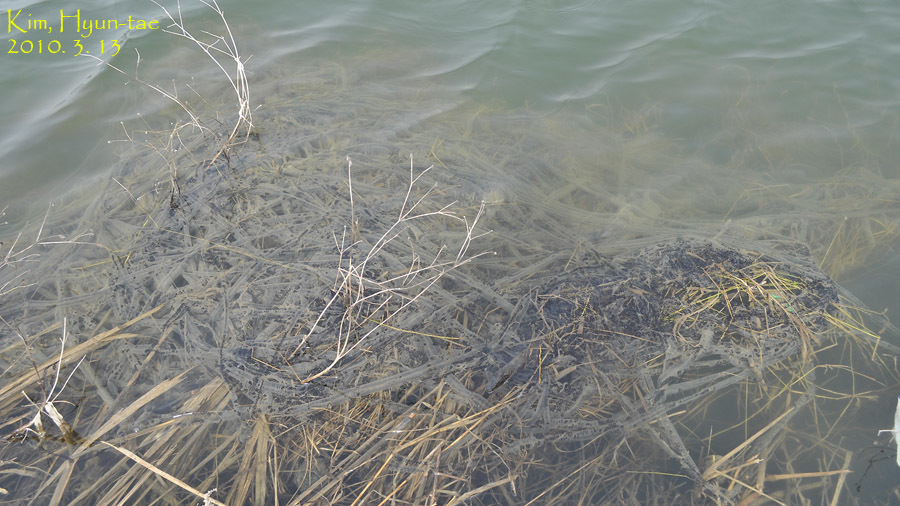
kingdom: Animalia
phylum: Chordata
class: Amphibia
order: Anura
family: Bufonidae
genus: Bufo
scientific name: Bufo gargarizans
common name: Asiatic toad
